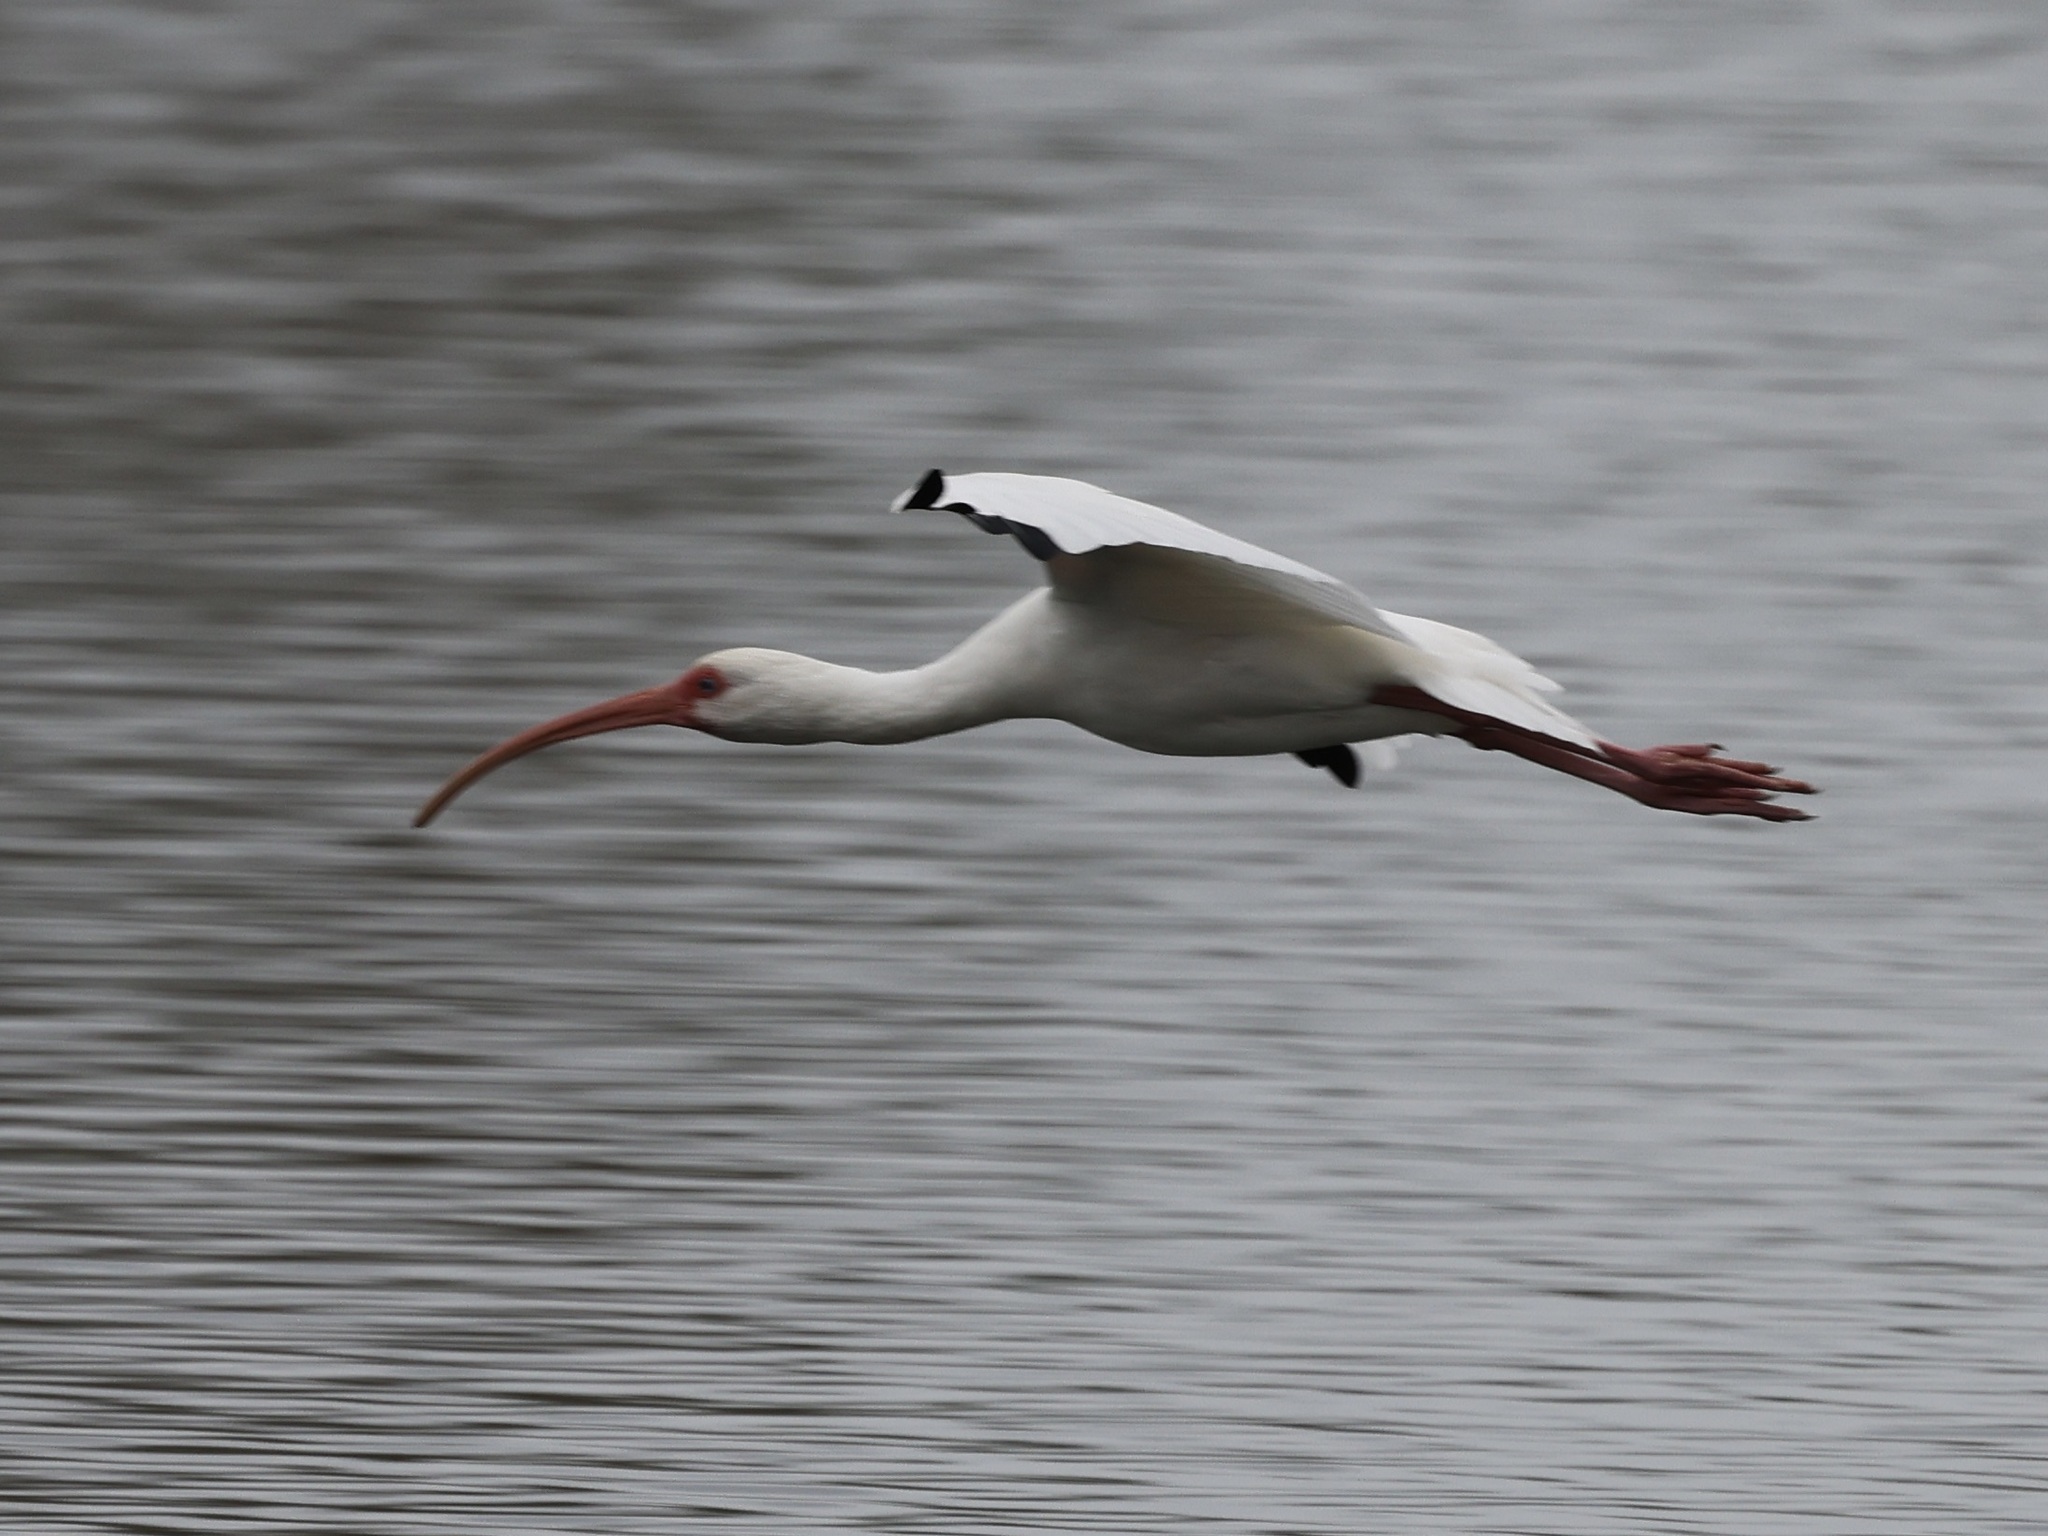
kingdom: Animalia
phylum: Chordata
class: Aves
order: Pelecaniformes
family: Threskiornithidae
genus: Eudocimus
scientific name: Eudocimus albus
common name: White ibis
